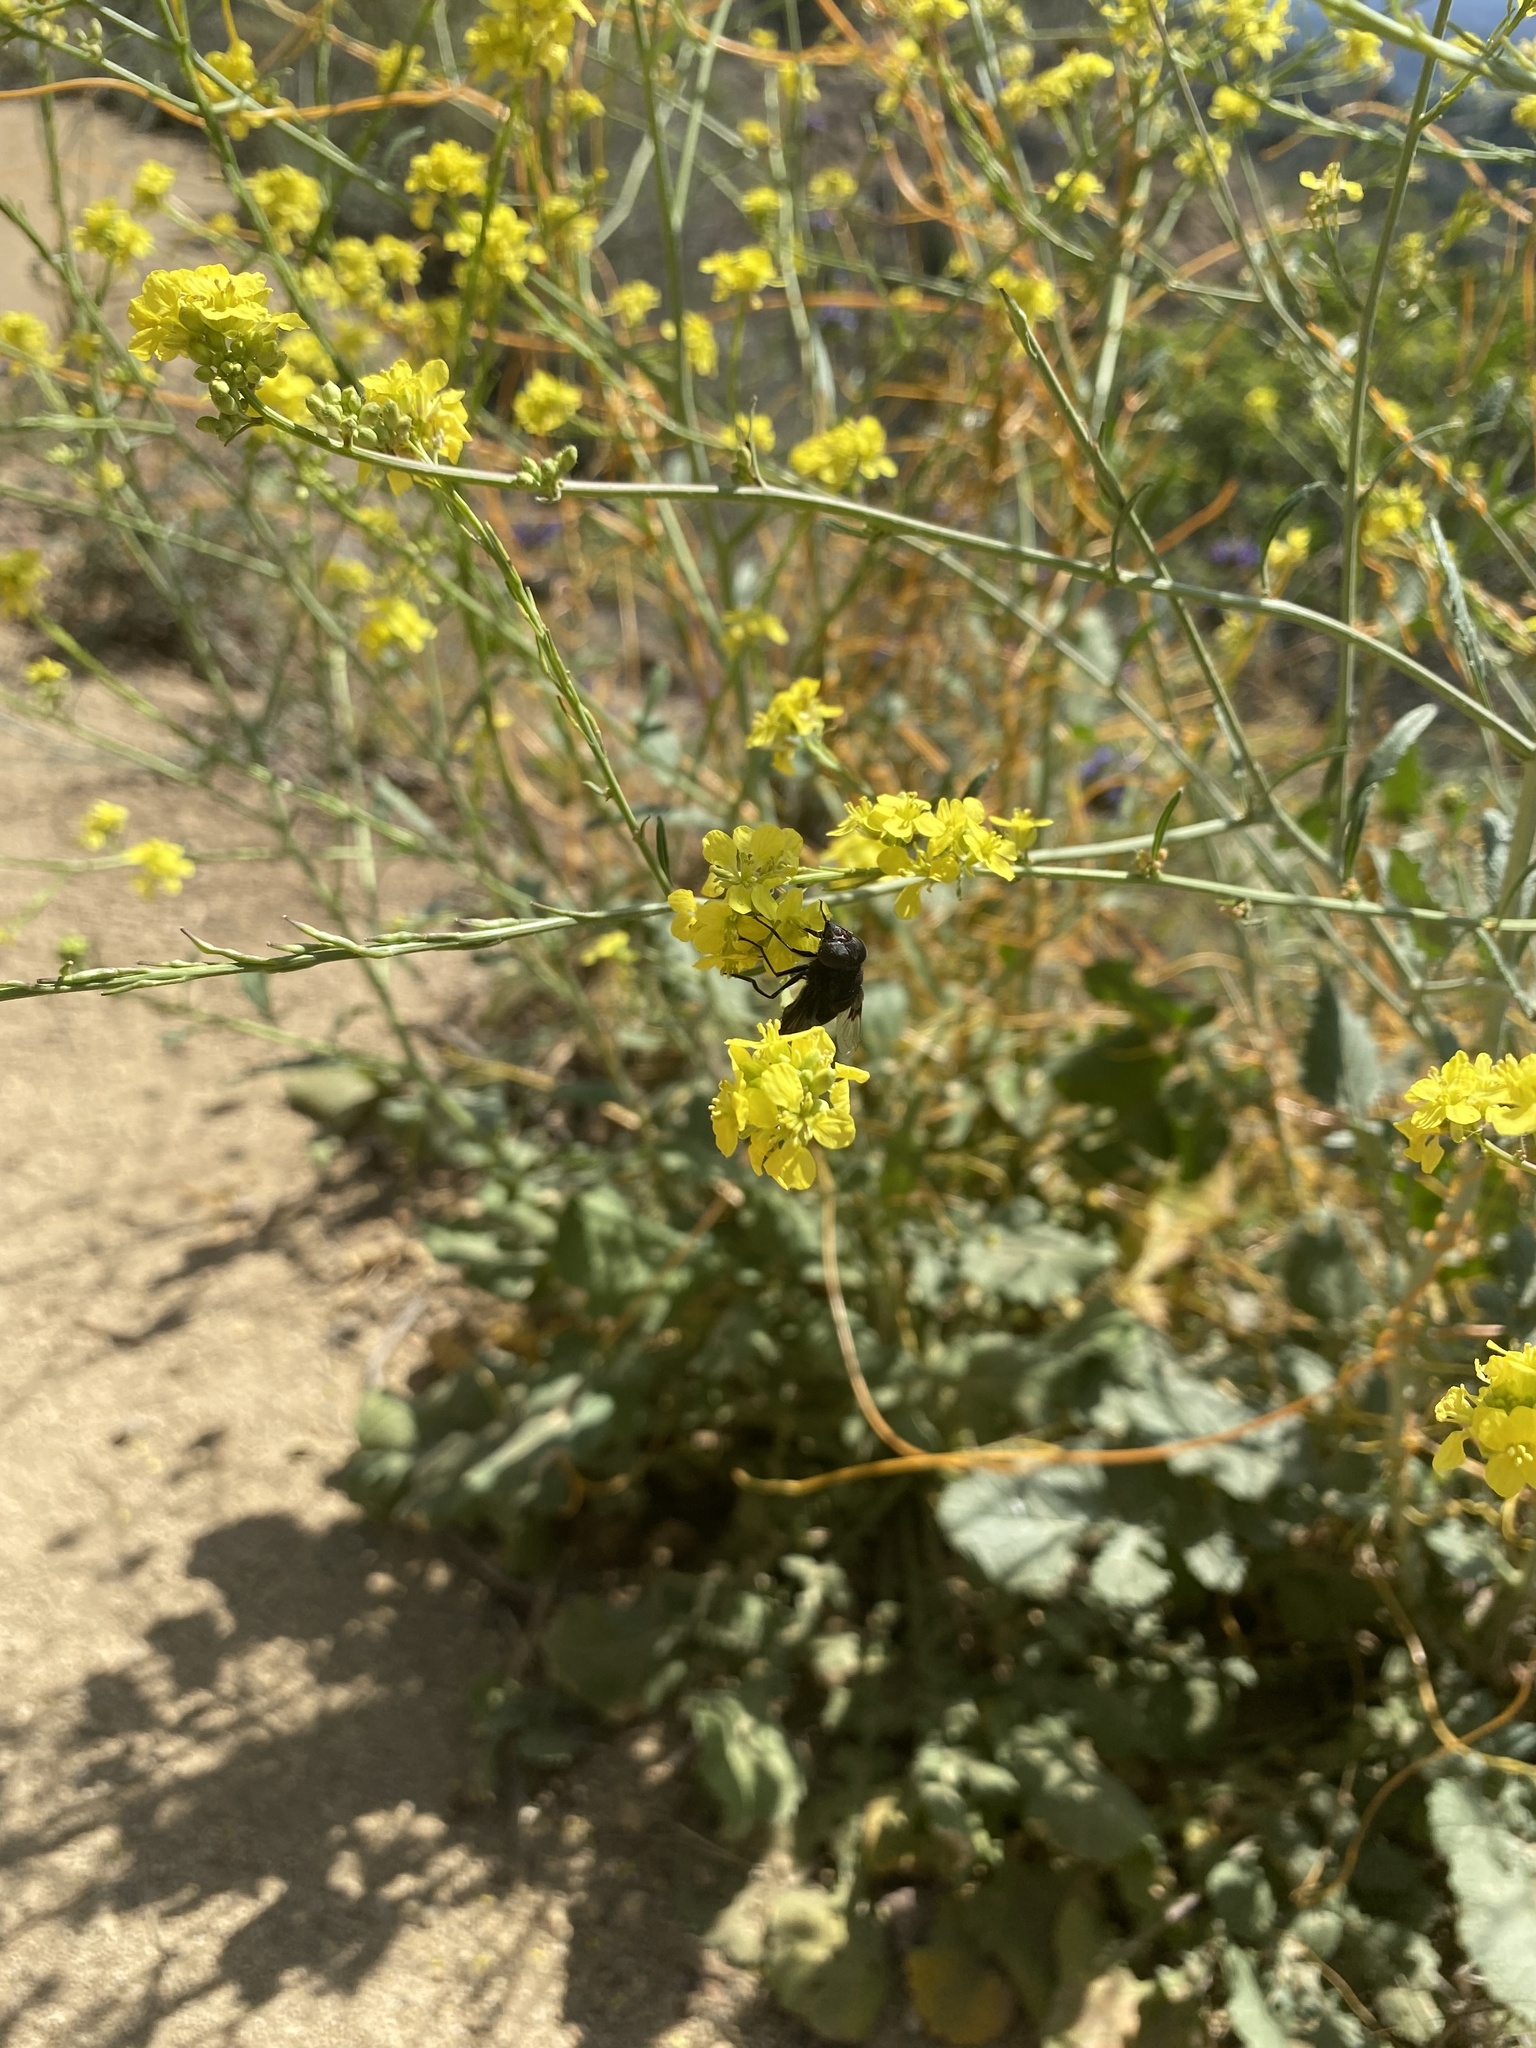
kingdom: Animalia
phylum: Arthropoda
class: Insecta
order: Diptera
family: Syrphidae
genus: Copestylum
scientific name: Copestylum mexicanum
